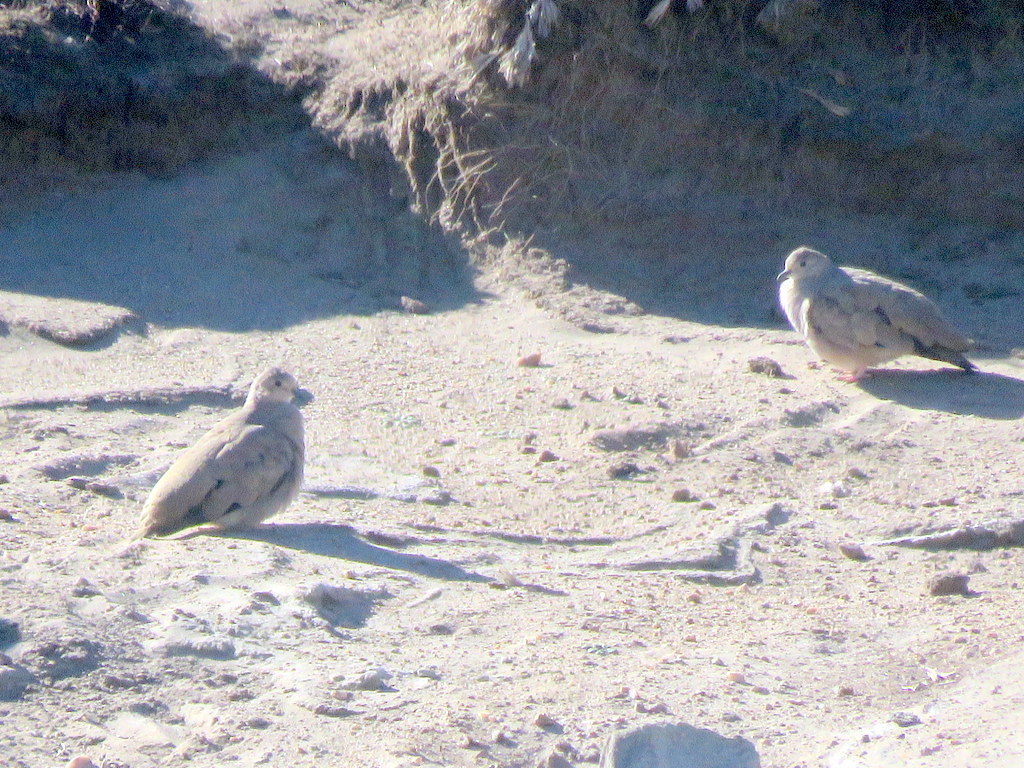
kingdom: Animalia
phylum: Chordata
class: Aves
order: Columbiformes
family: Columbidae
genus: Metriopelia
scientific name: Metriopelia aymara
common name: Golden-spotted ground dove
